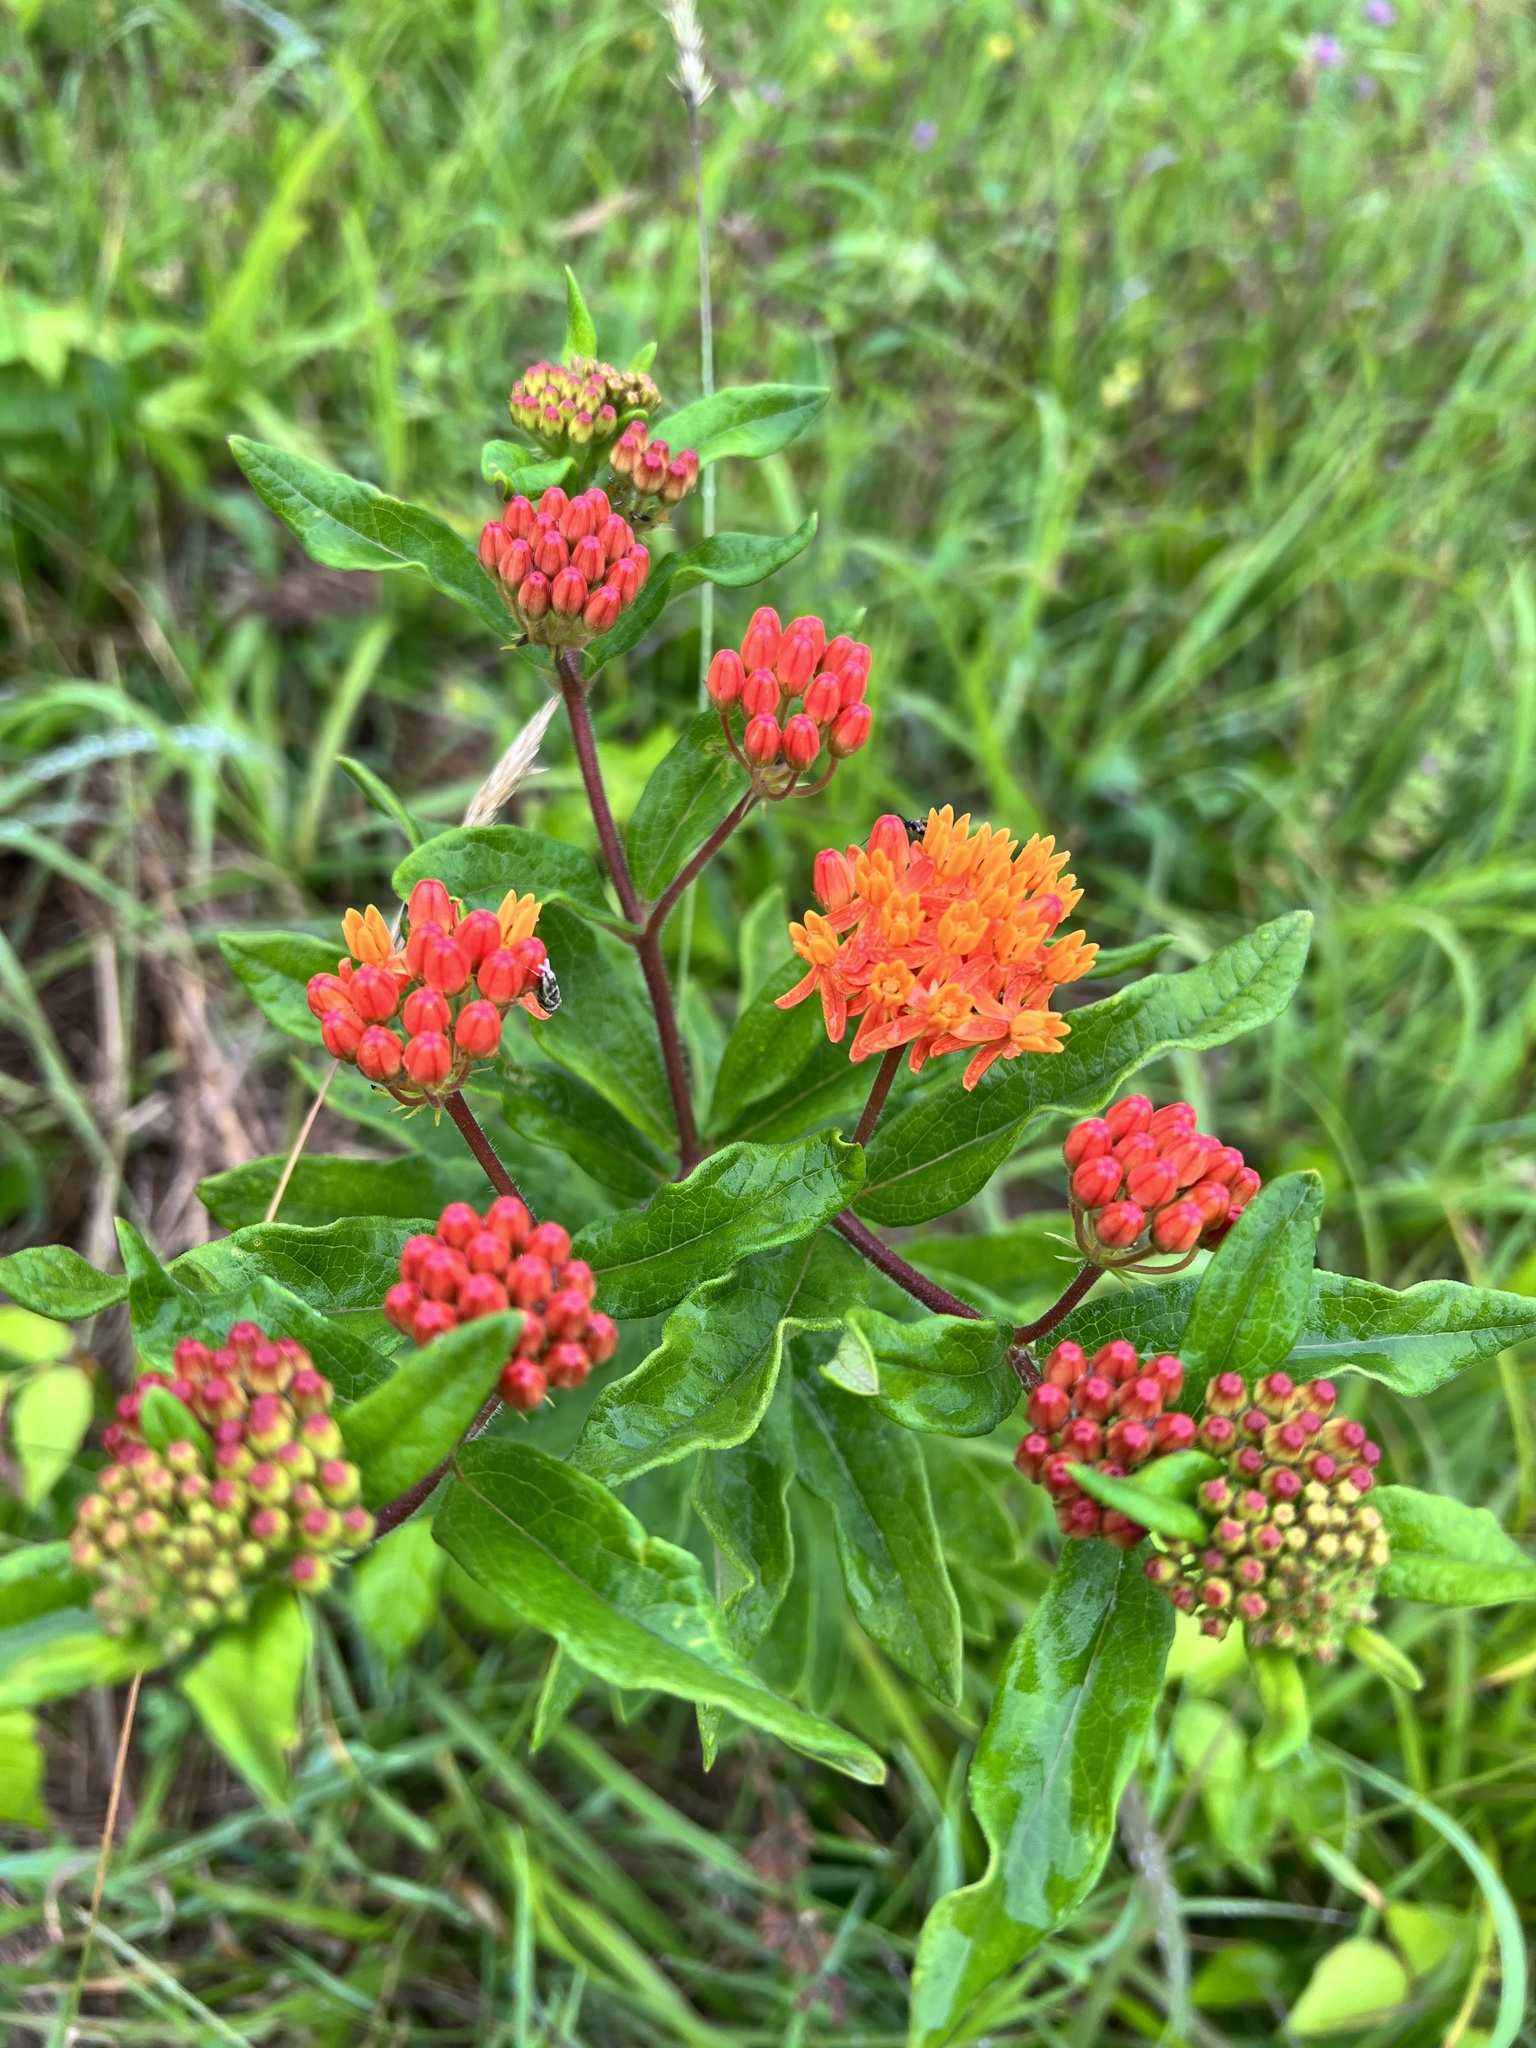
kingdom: Plantae
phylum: Tracheophyta
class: Magnoliopsida
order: Gentianales
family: Apocynaceae
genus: Asclepias
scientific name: Asclepias tuberosa
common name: Butterfly milkweed
